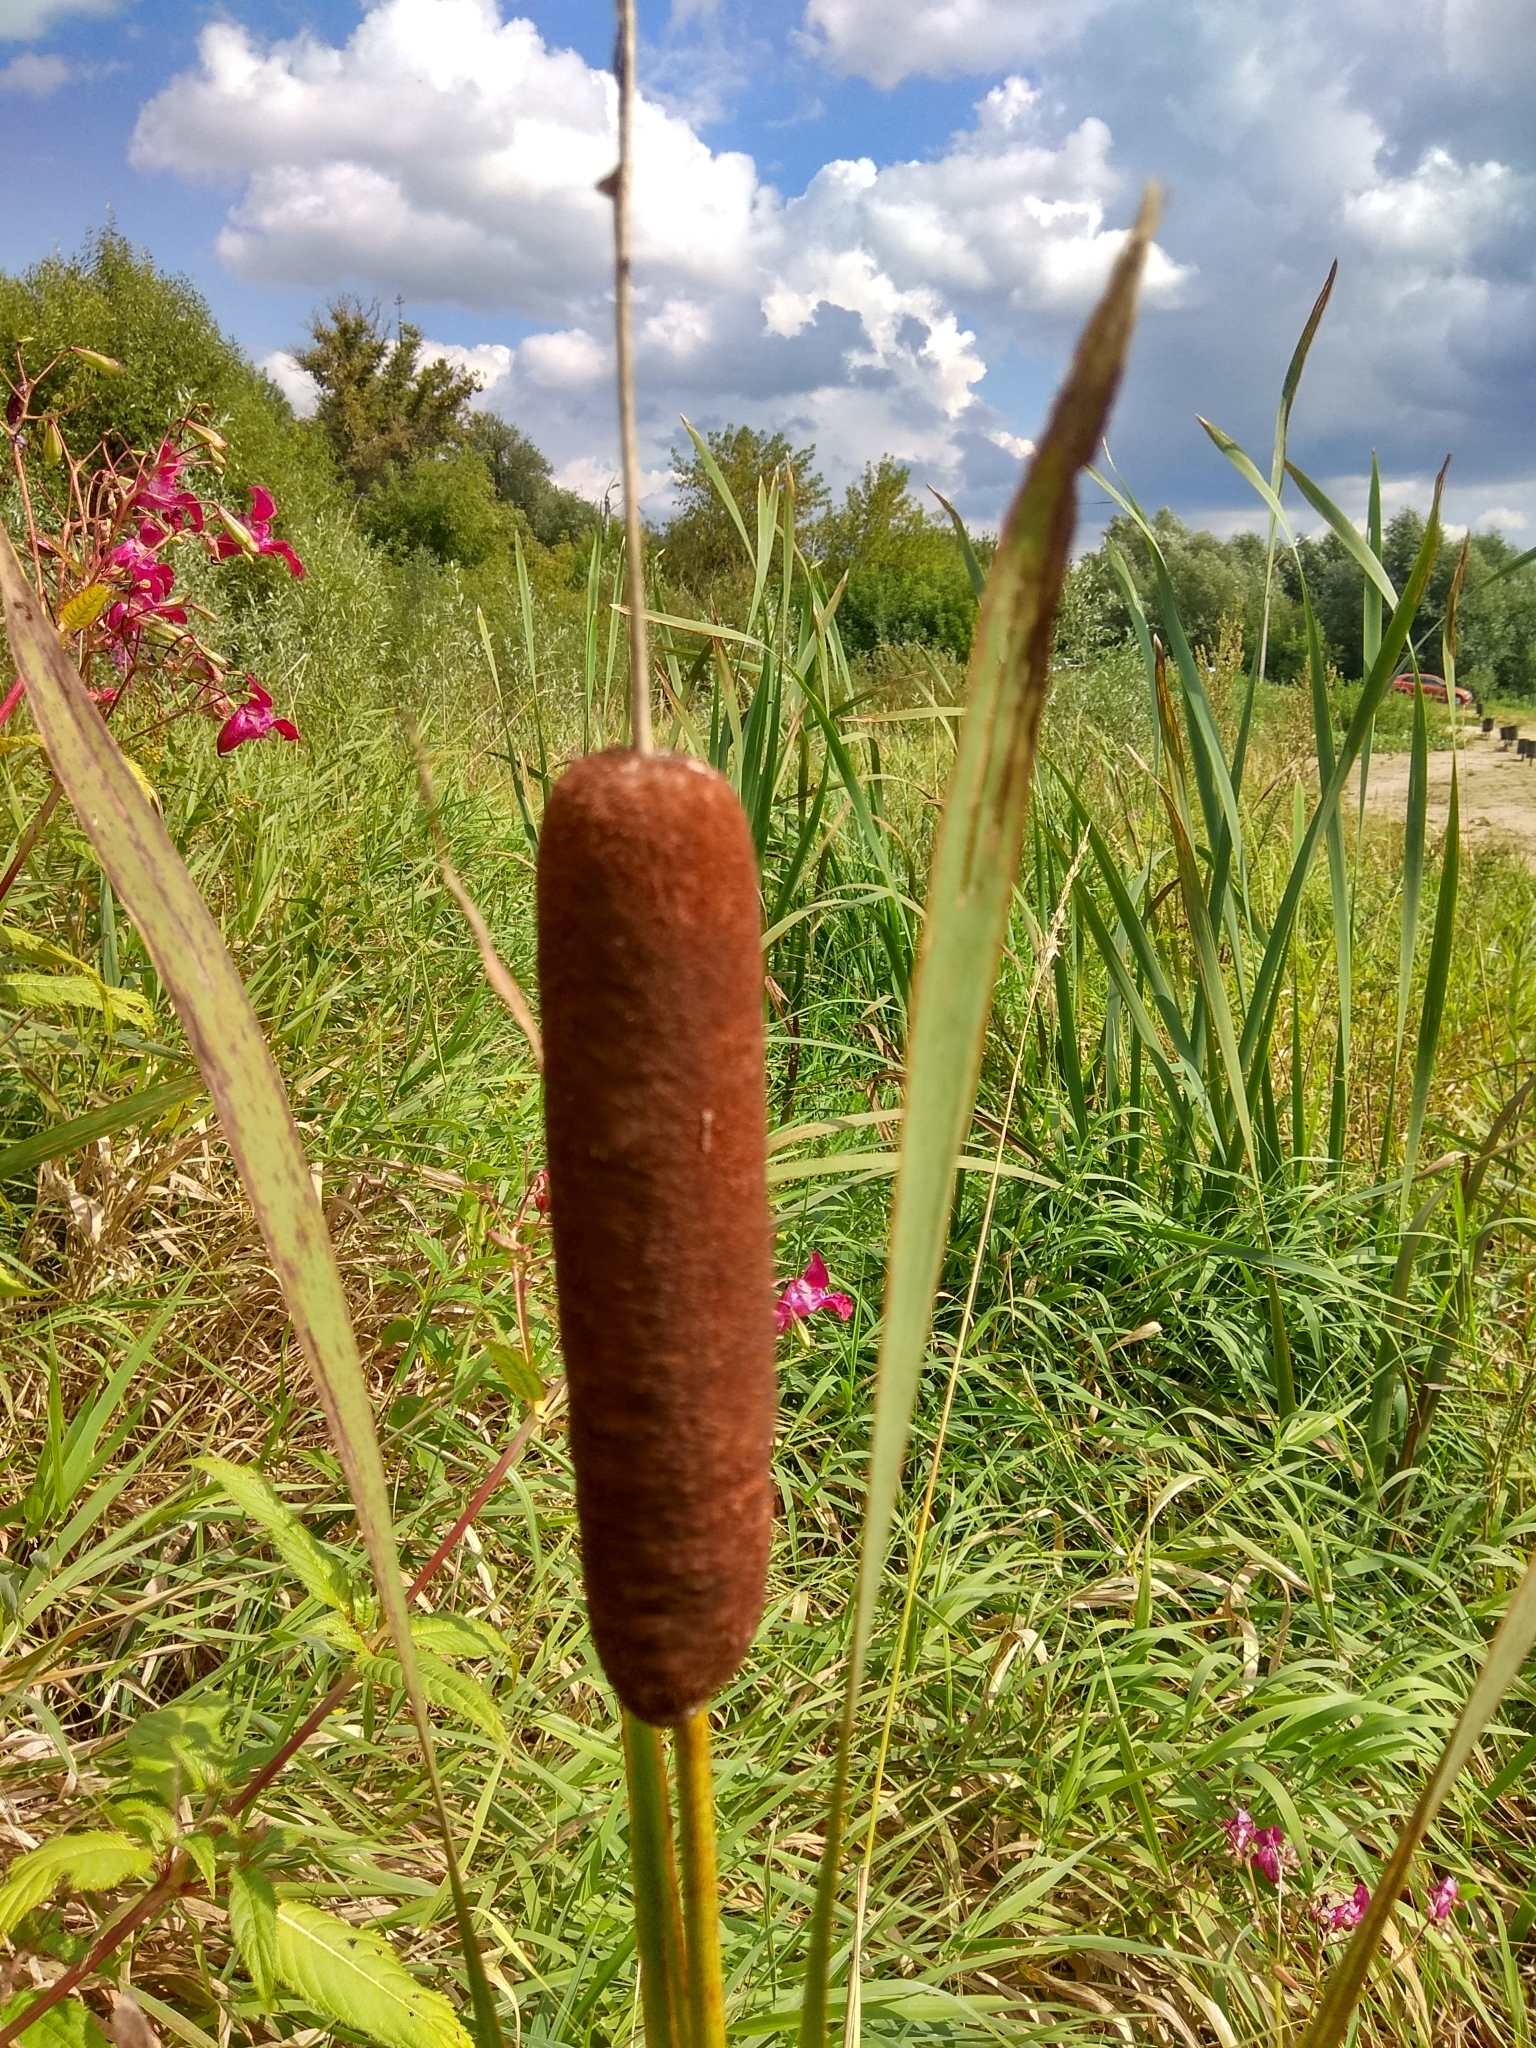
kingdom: Plantae
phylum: Tracheophyta
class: Liliopsida
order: Poales
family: Typhaceae
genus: Typha
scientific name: Typha latifolia
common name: Broadleaf cattail
